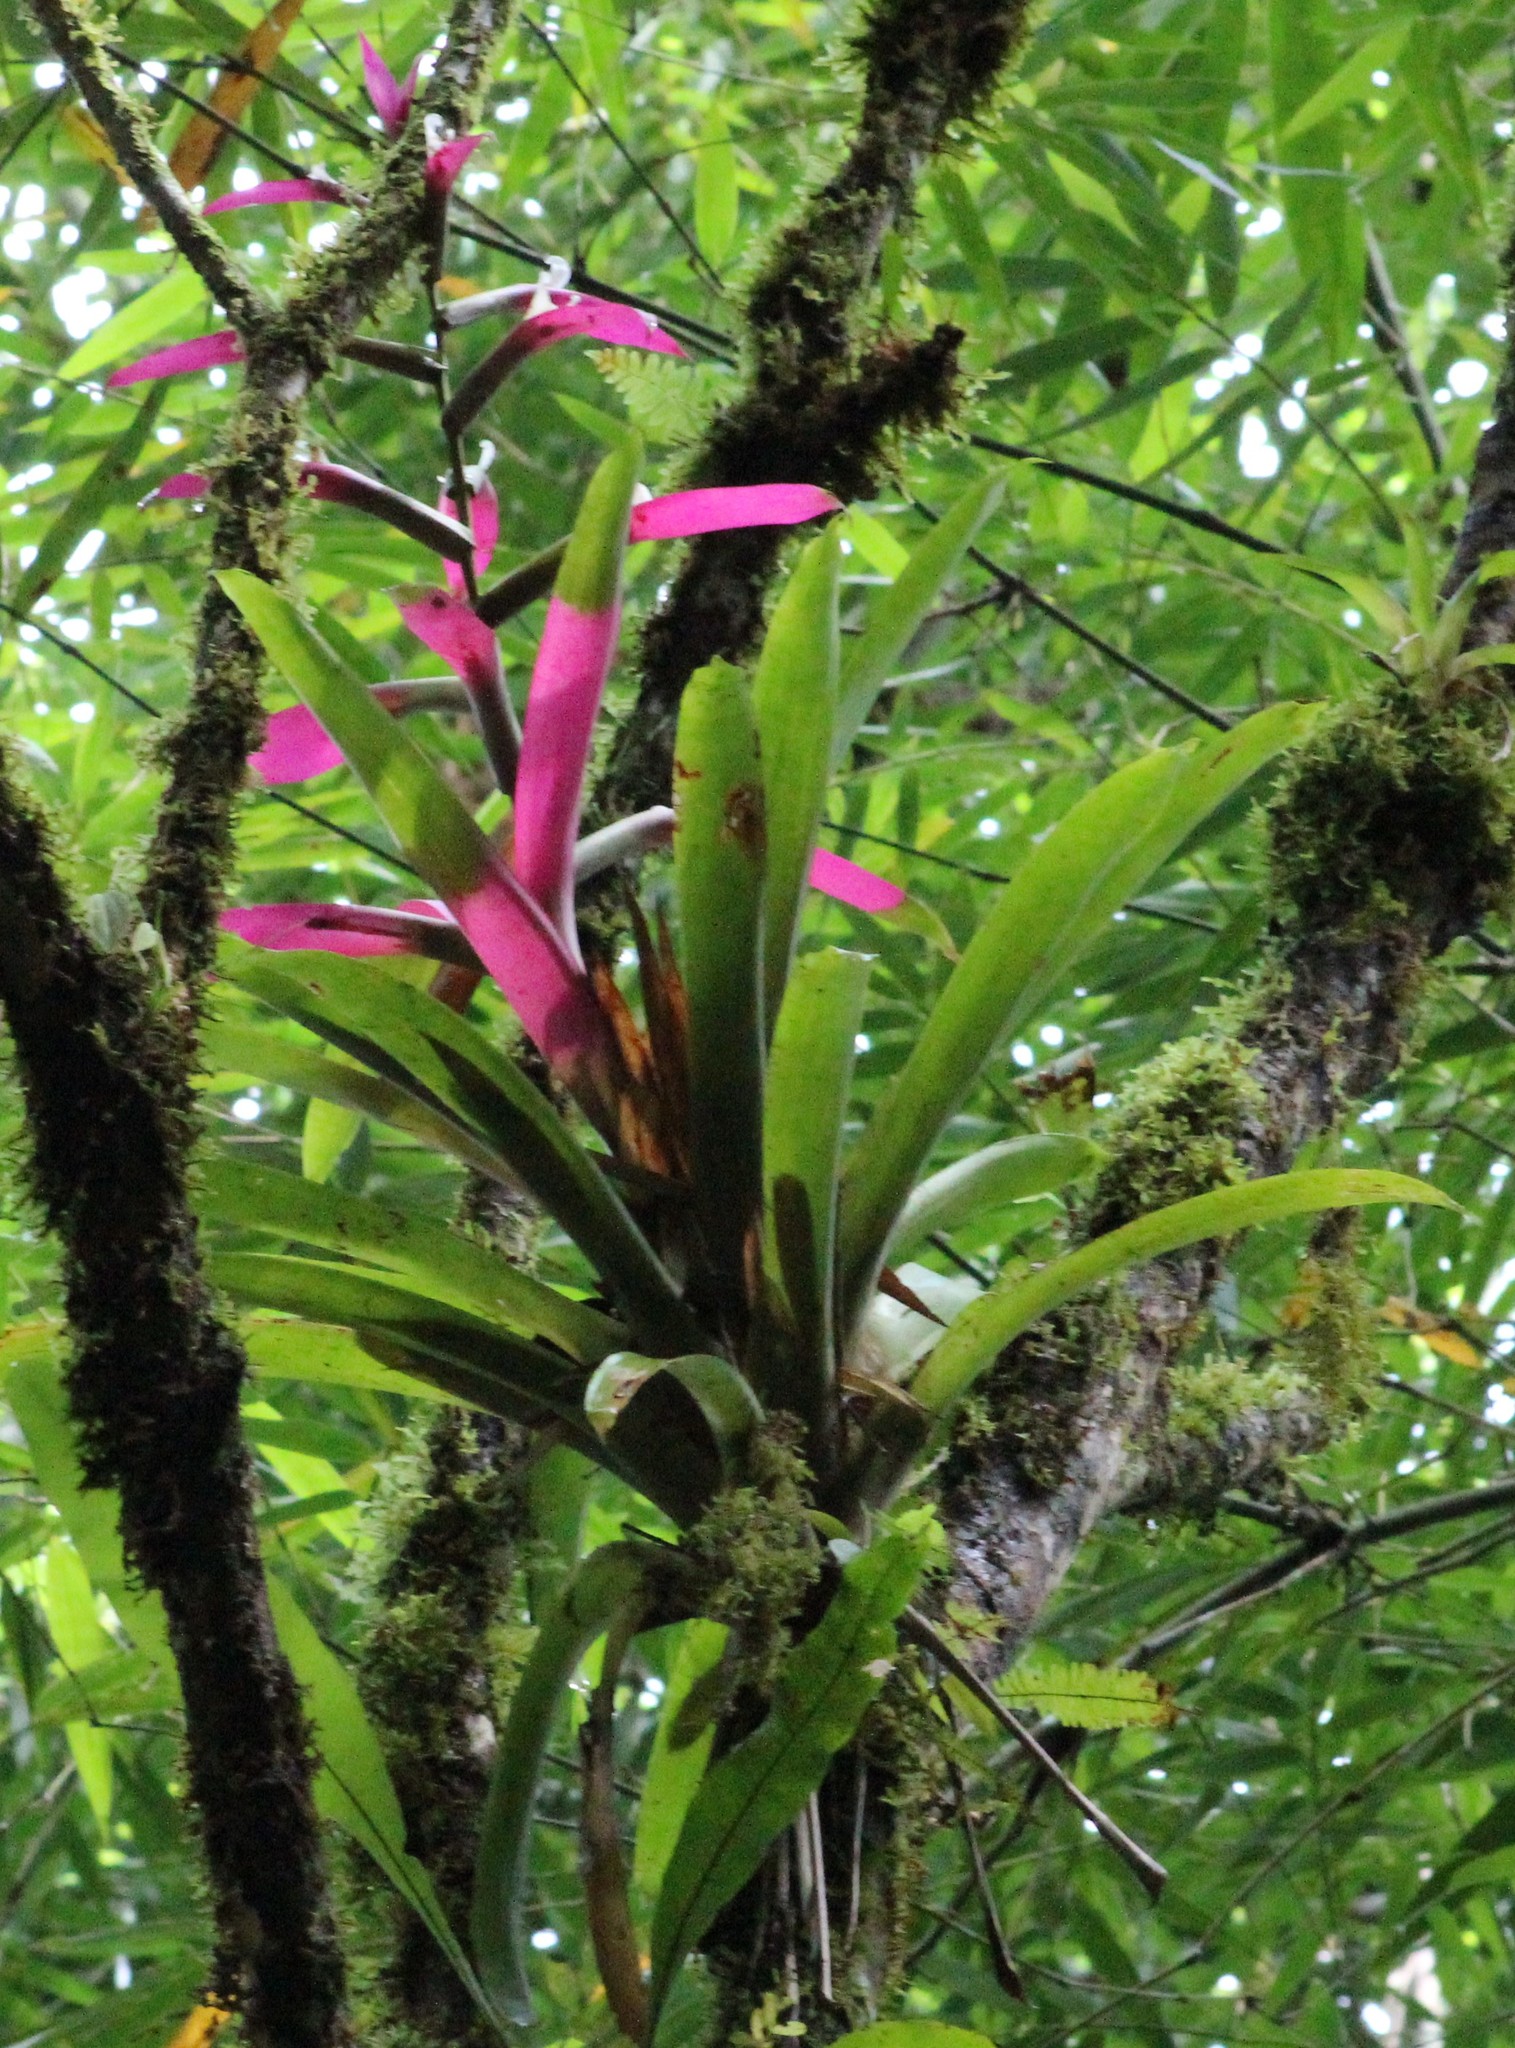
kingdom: Plantae
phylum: Tracheophyta
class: Liliopsida
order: Poales
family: Bromeliaceae
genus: Guzmania
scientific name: Guzmania wittmackii
